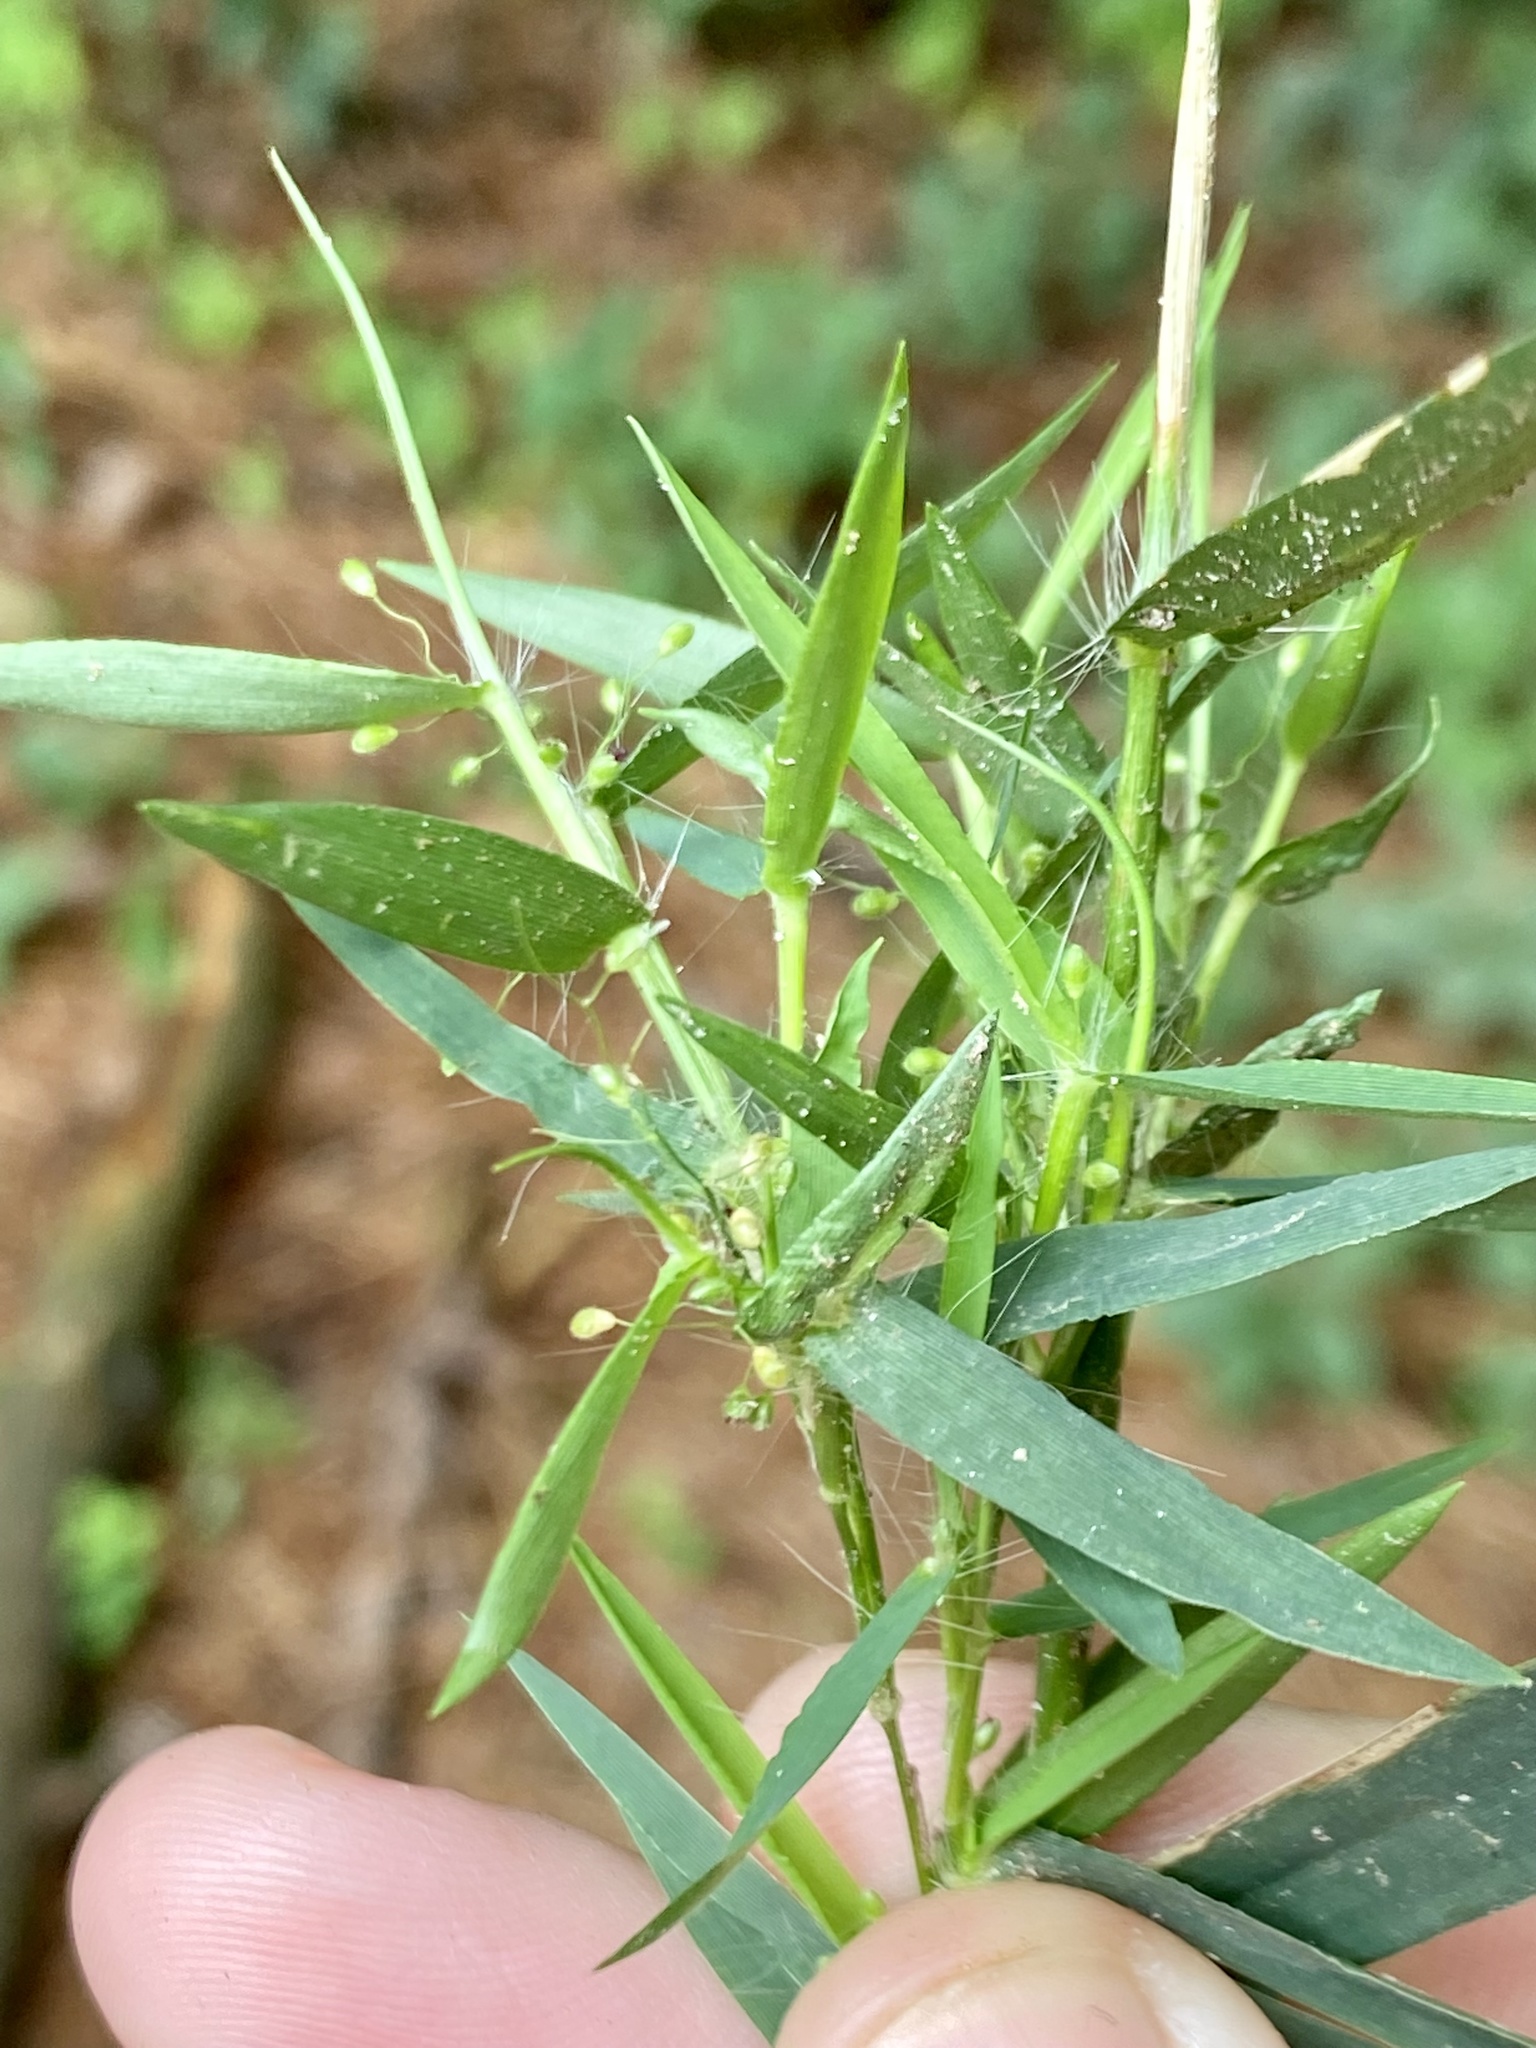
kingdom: Plantae
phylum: Tracheophyta
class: Liliopsida
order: Poales
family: Poaceae
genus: Dichanthelium
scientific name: Dichanthelium lindheimeri
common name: Lindheimer's panicgrass
